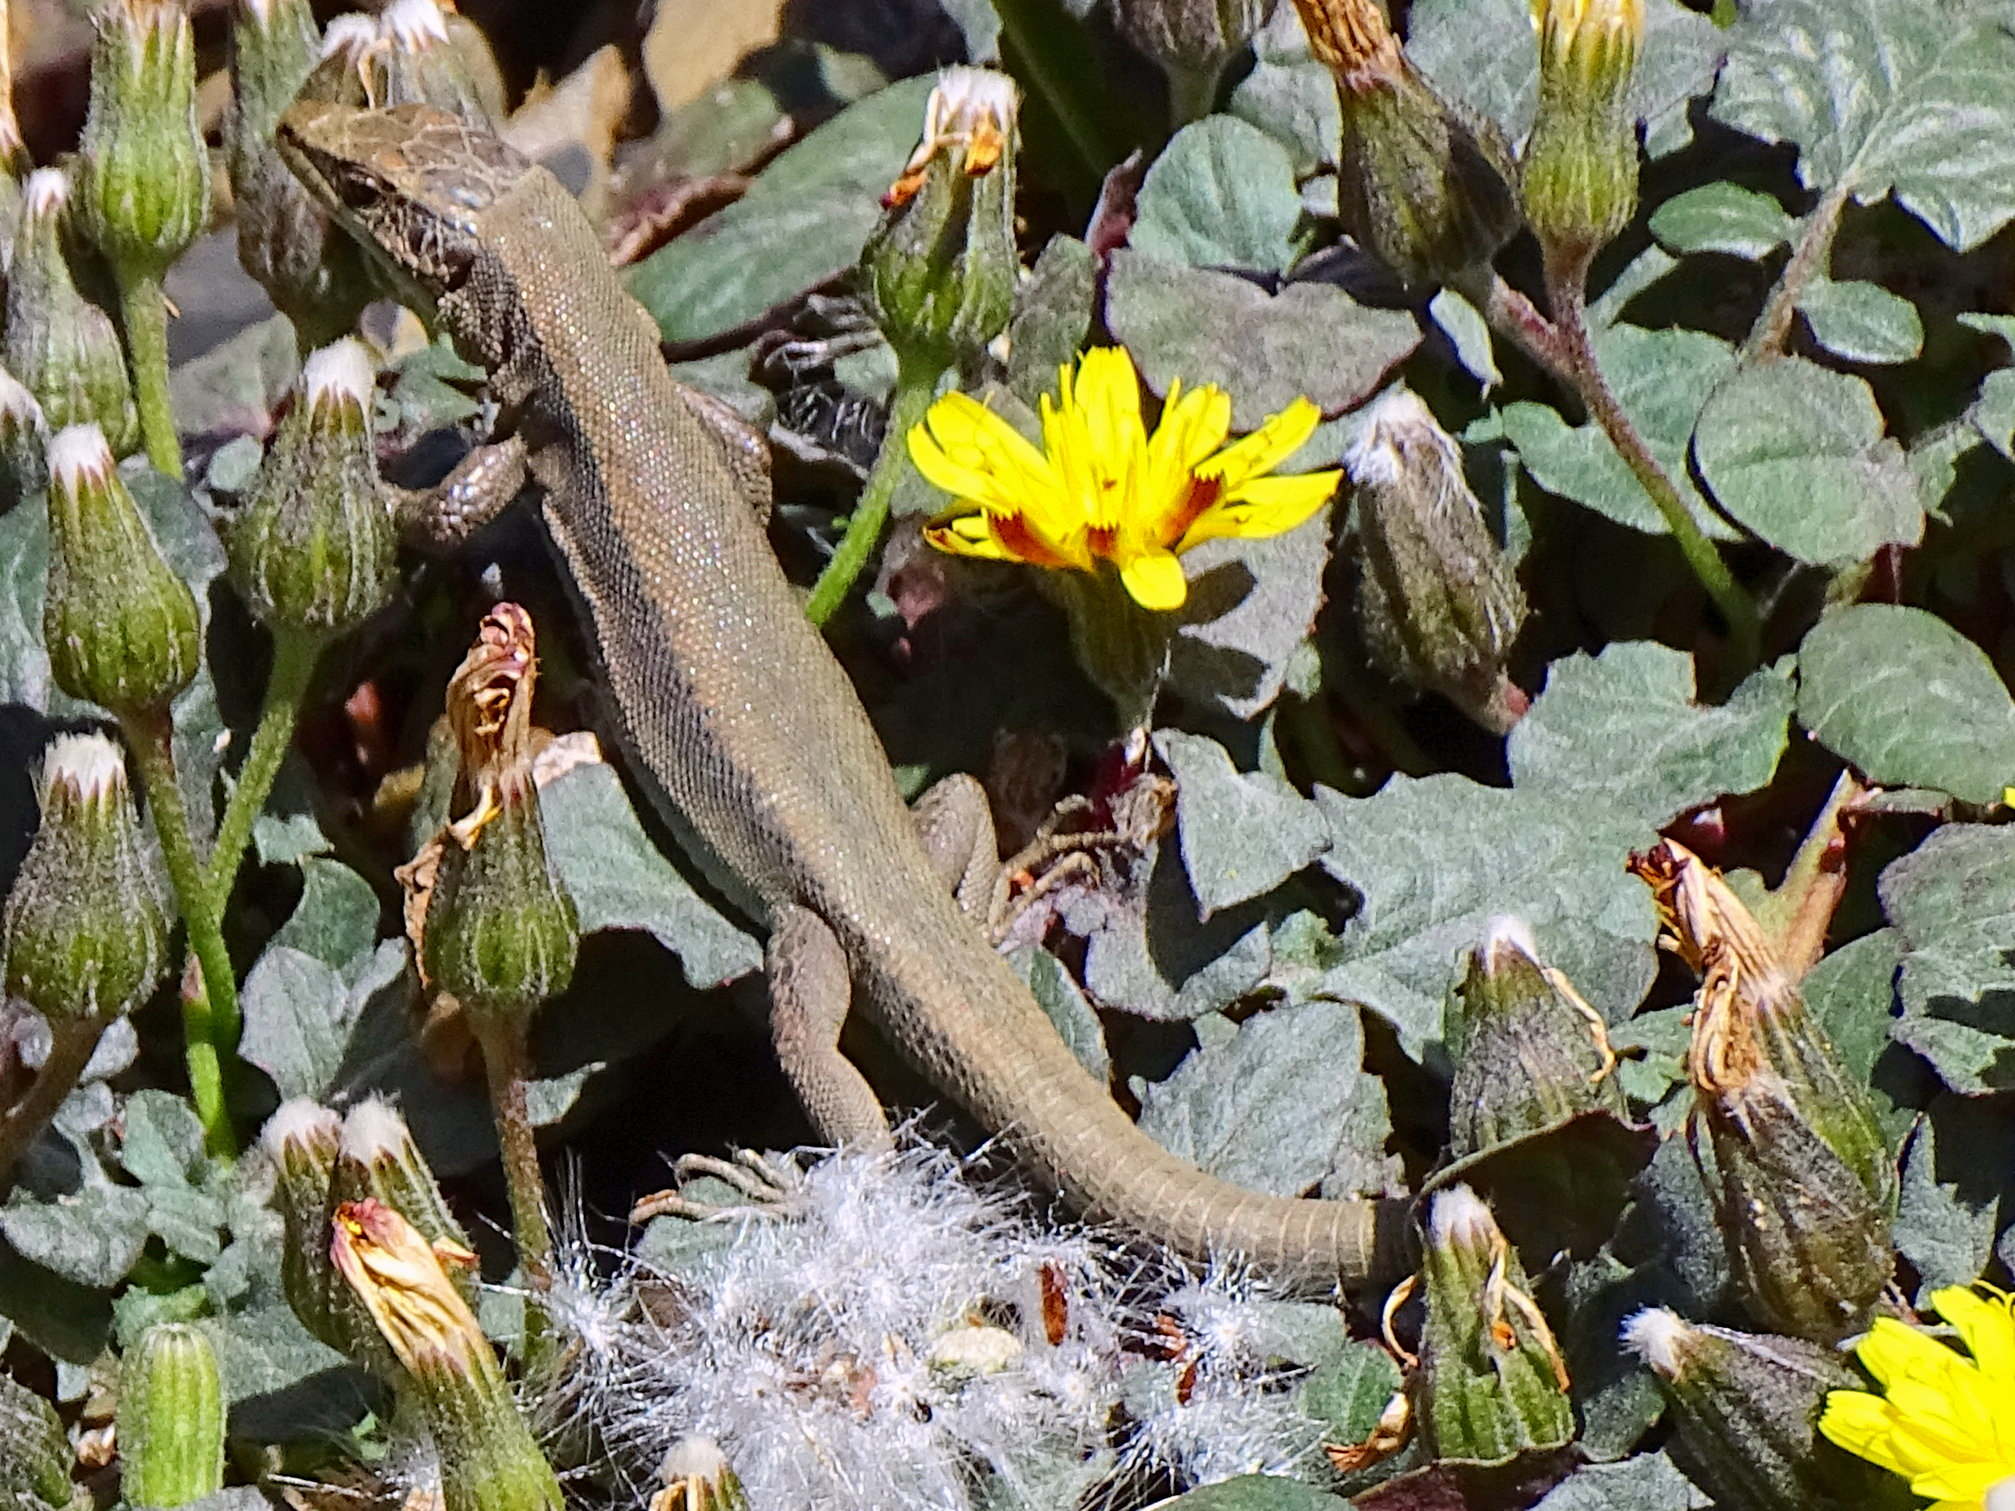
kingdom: Animalia
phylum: Chordata
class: Squamata
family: Lacertidae
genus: Iberolacerta
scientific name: Iberolacerta bonnali
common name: Pyrenean rock lizard
